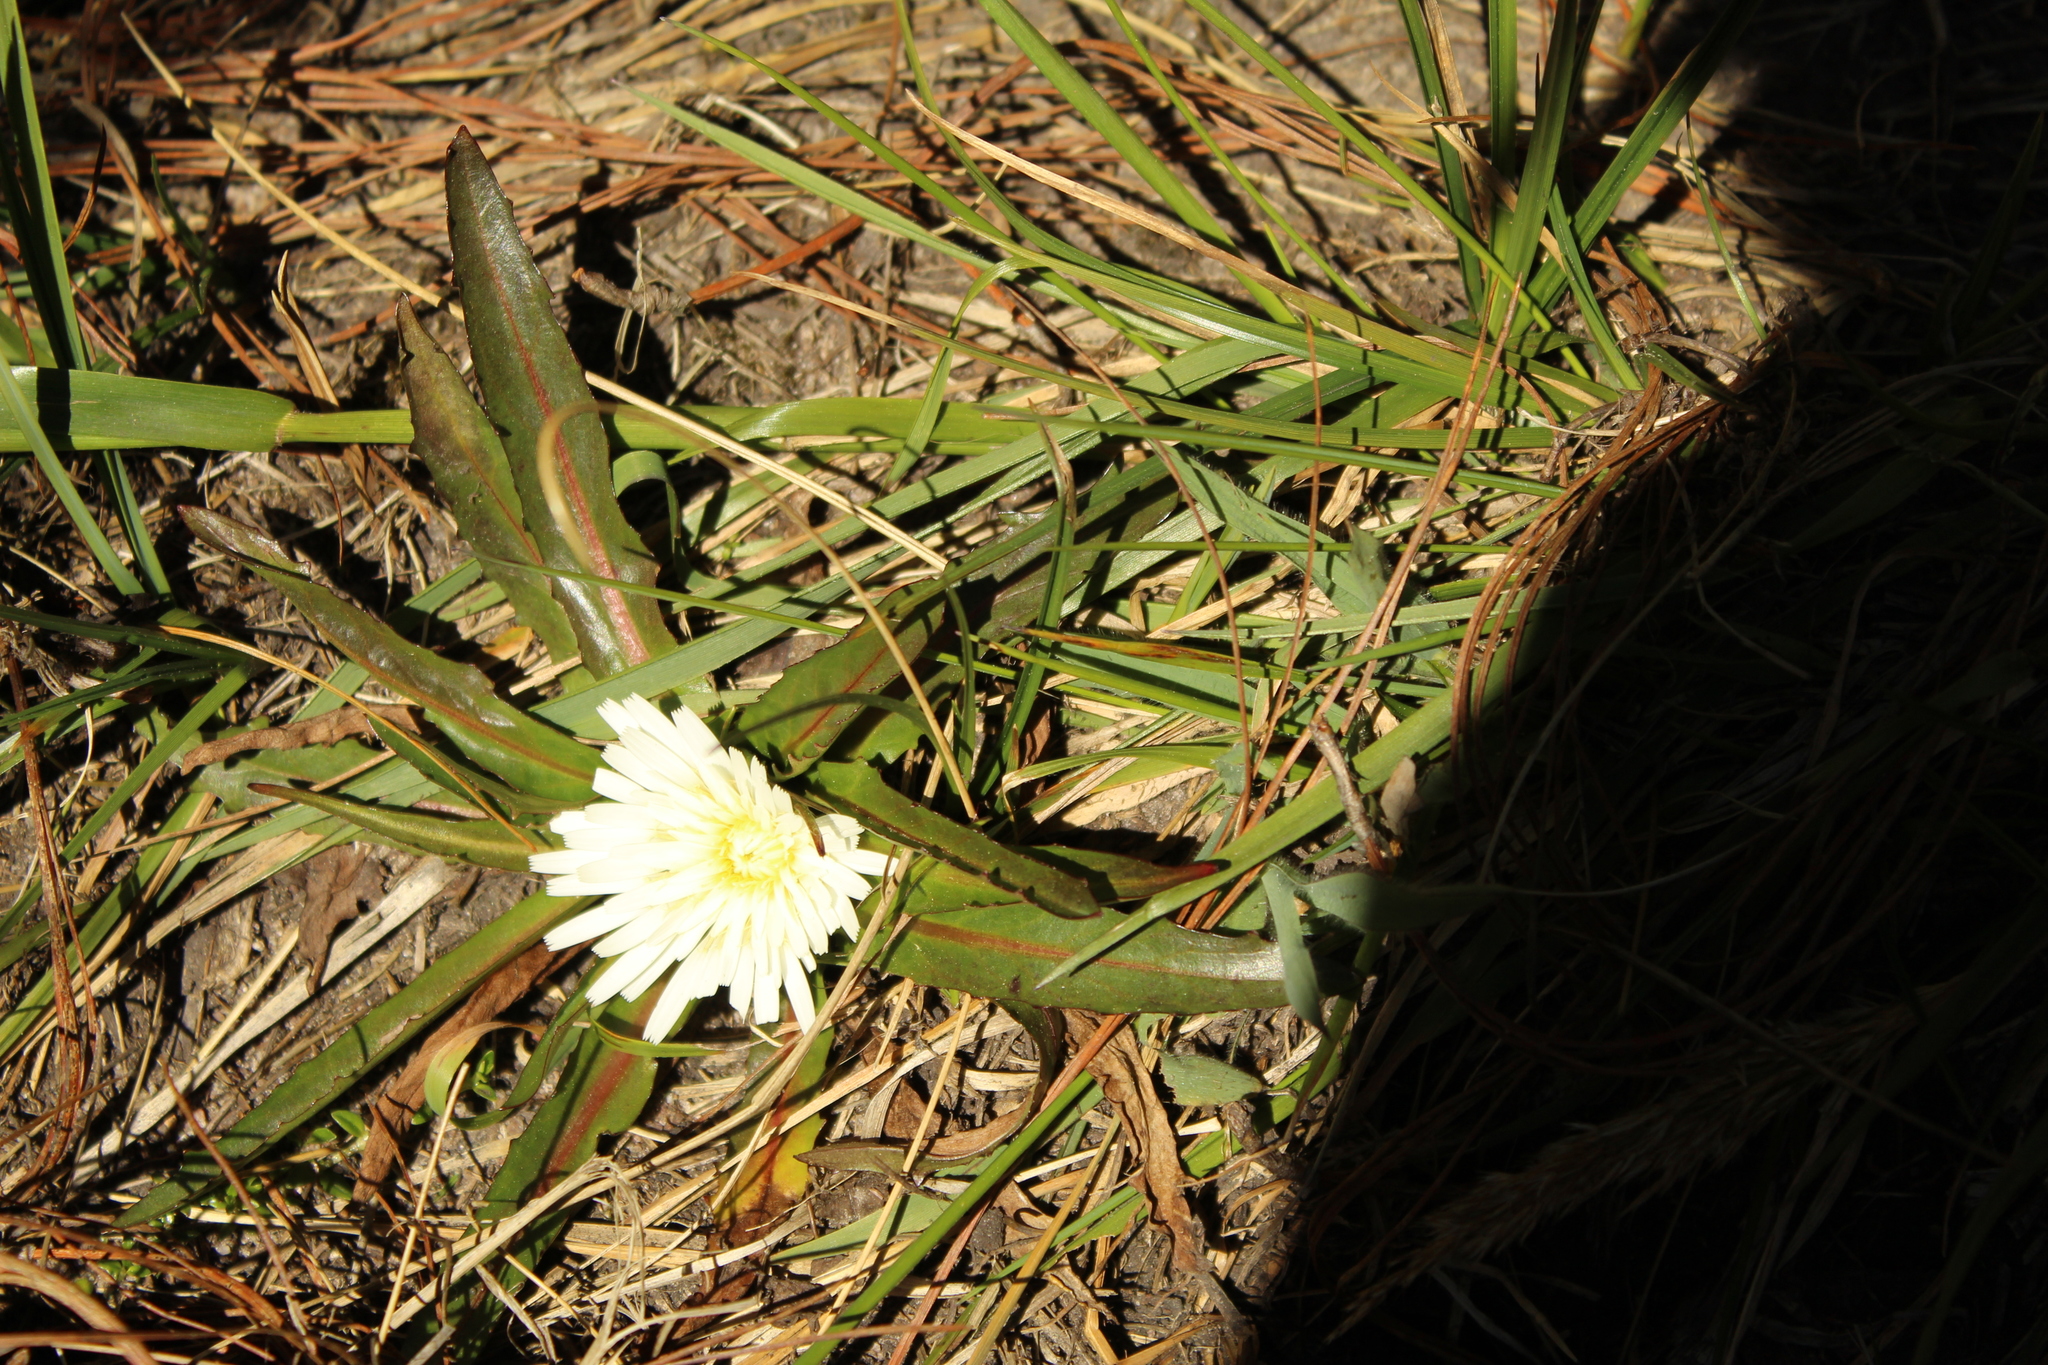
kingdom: Plantae
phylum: Tracheophyta
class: Magnoliopsida
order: Asterales
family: Asteraceae
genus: Hypochaeris
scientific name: Hypochaeris sessiliflora
